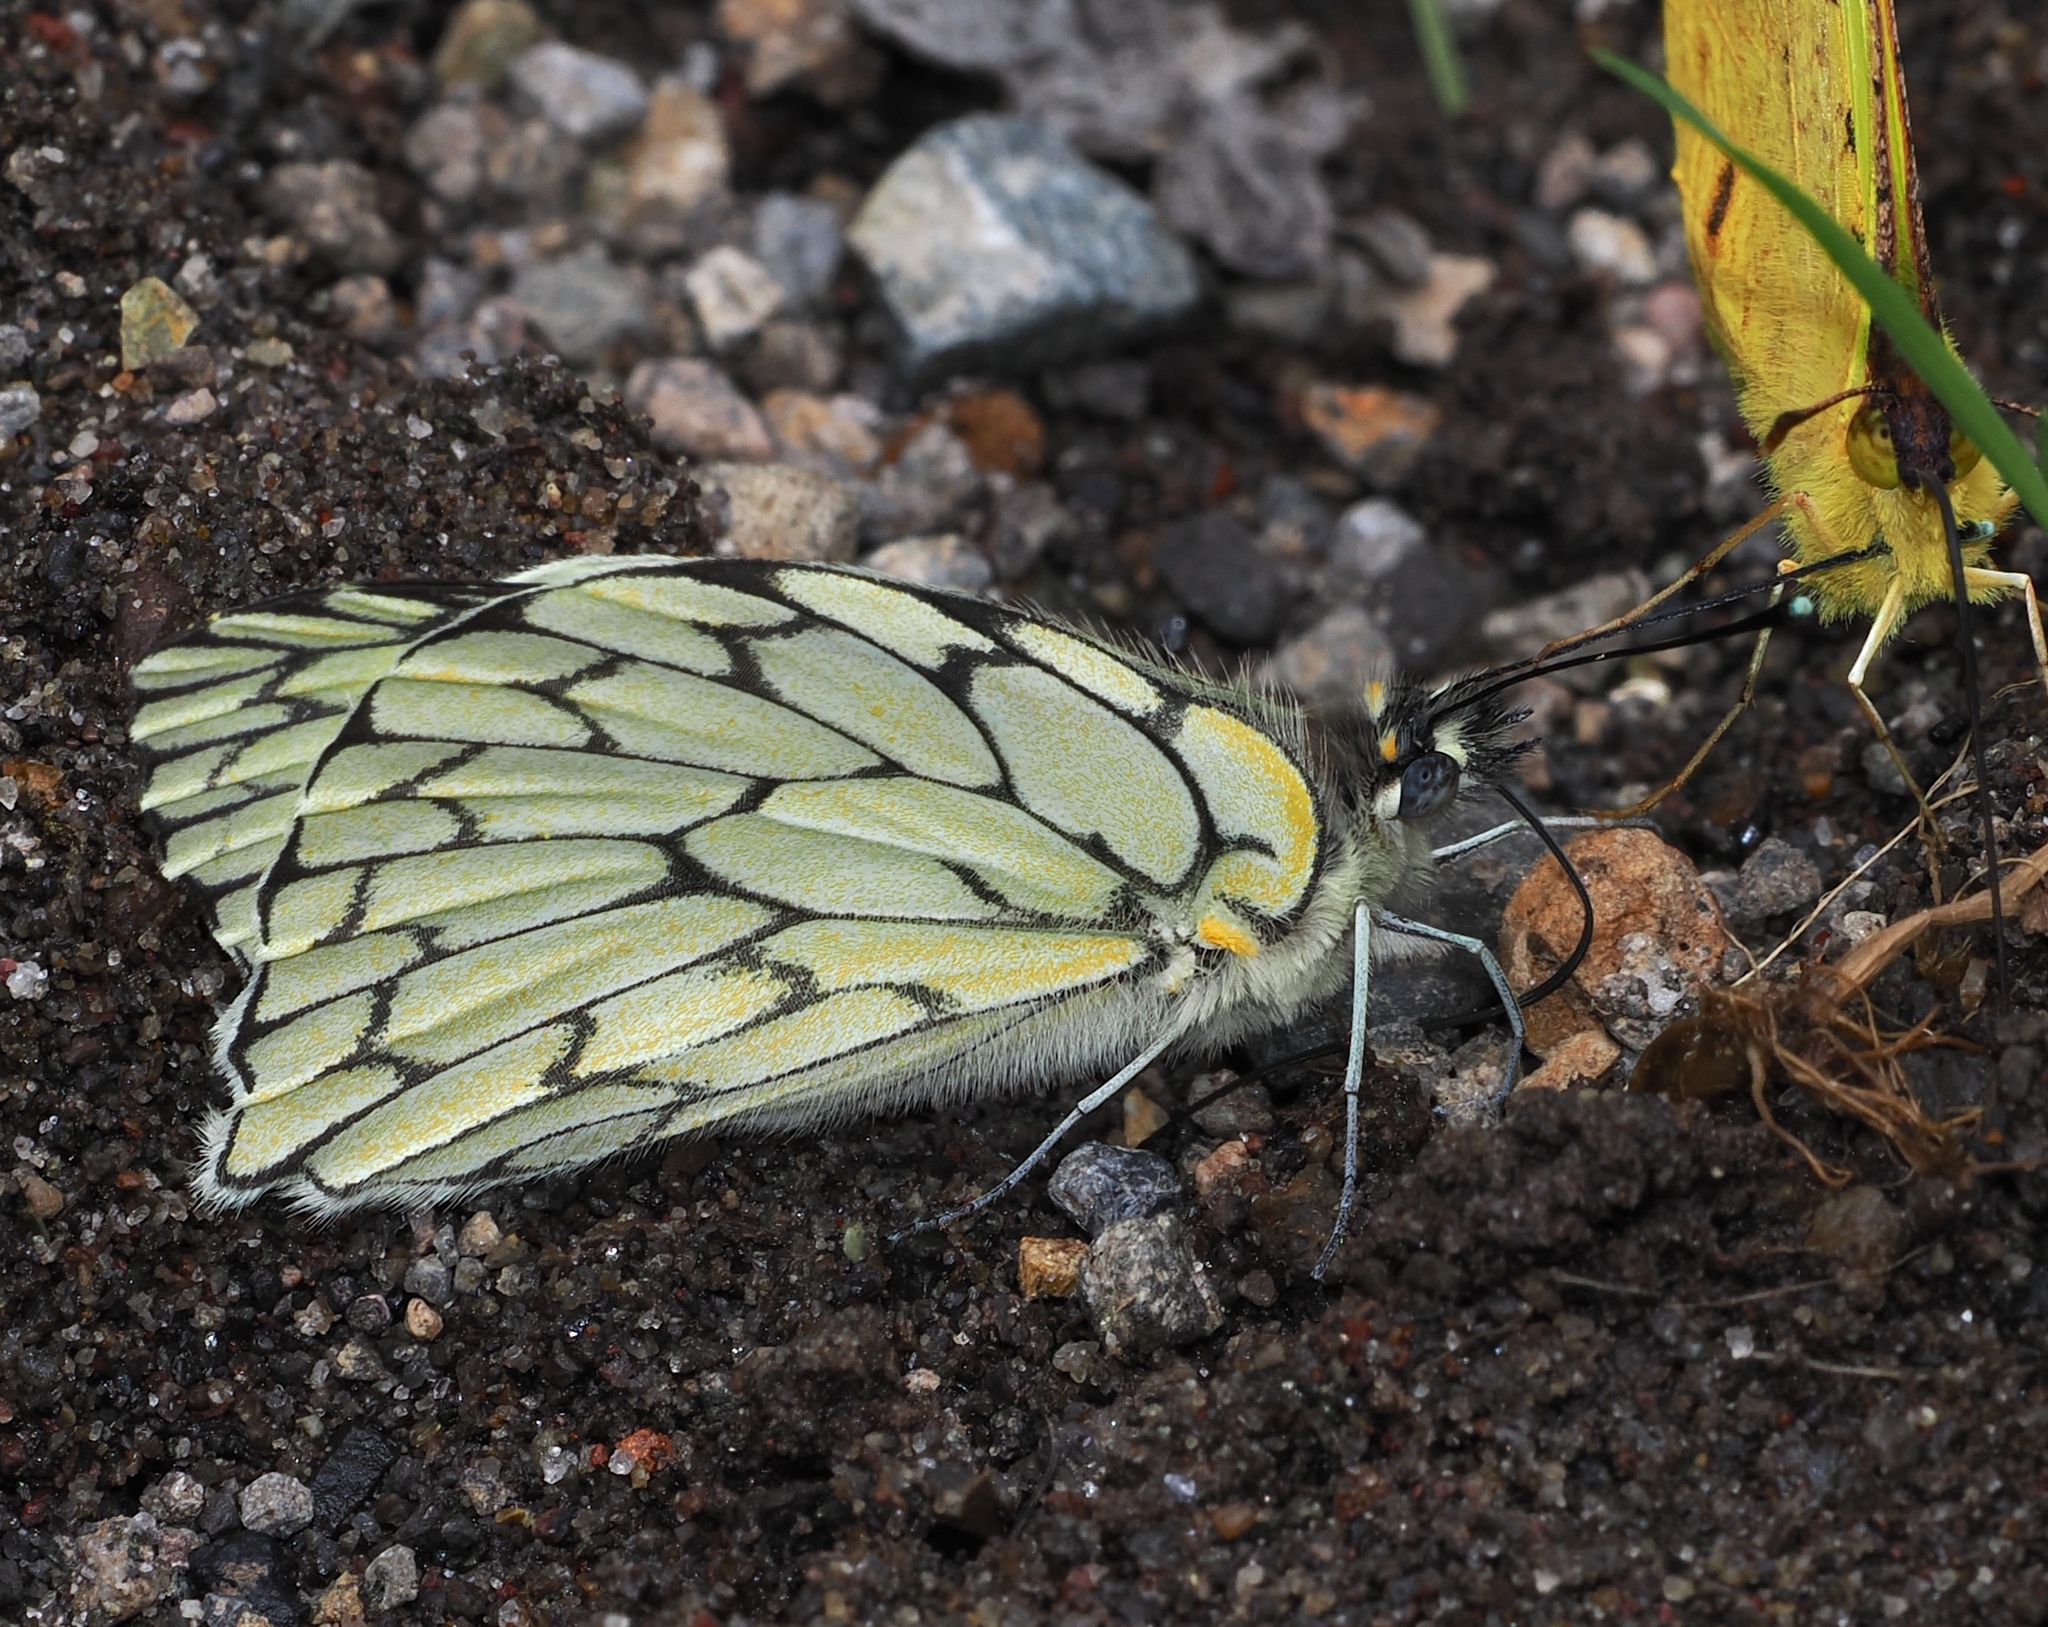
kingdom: Animalia
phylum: Arthropoda
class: Insecta
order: Lepidoptera
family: Pieridae
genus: Hesperocharis
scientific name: Hesperocharis marchalii
